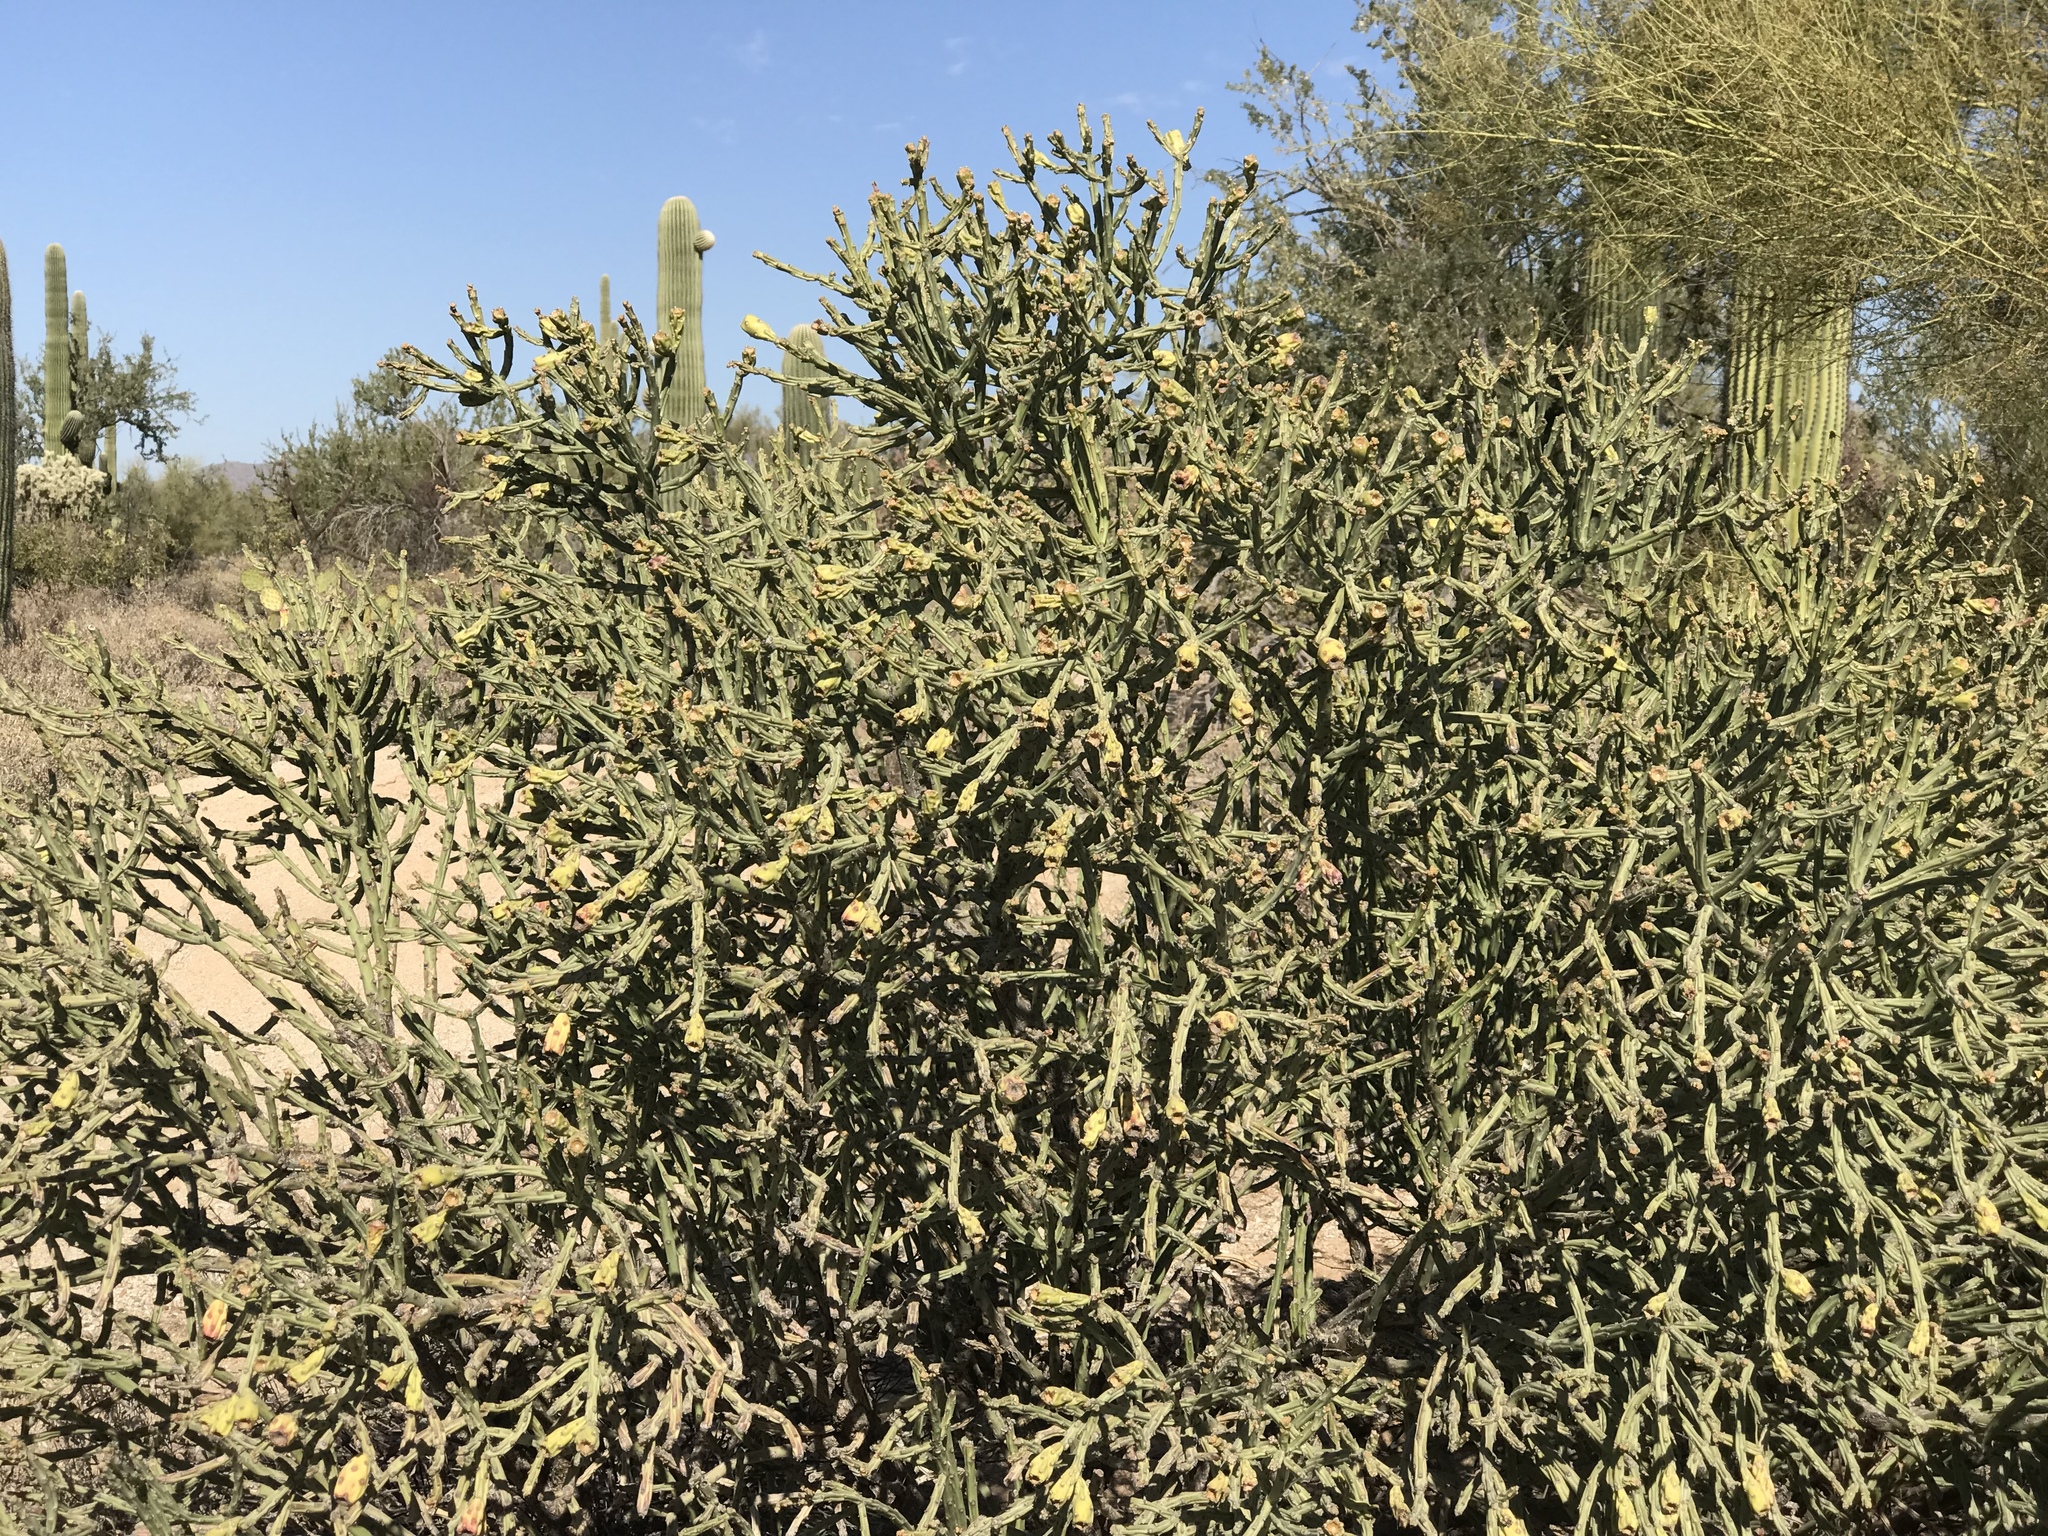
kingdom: Plantae
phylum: Tracheophyta
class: Magnoliopsida
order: Caryophyllales
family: Cactaceae
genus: Cylindropuntia
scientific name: Cylindropuntia arbuscula
